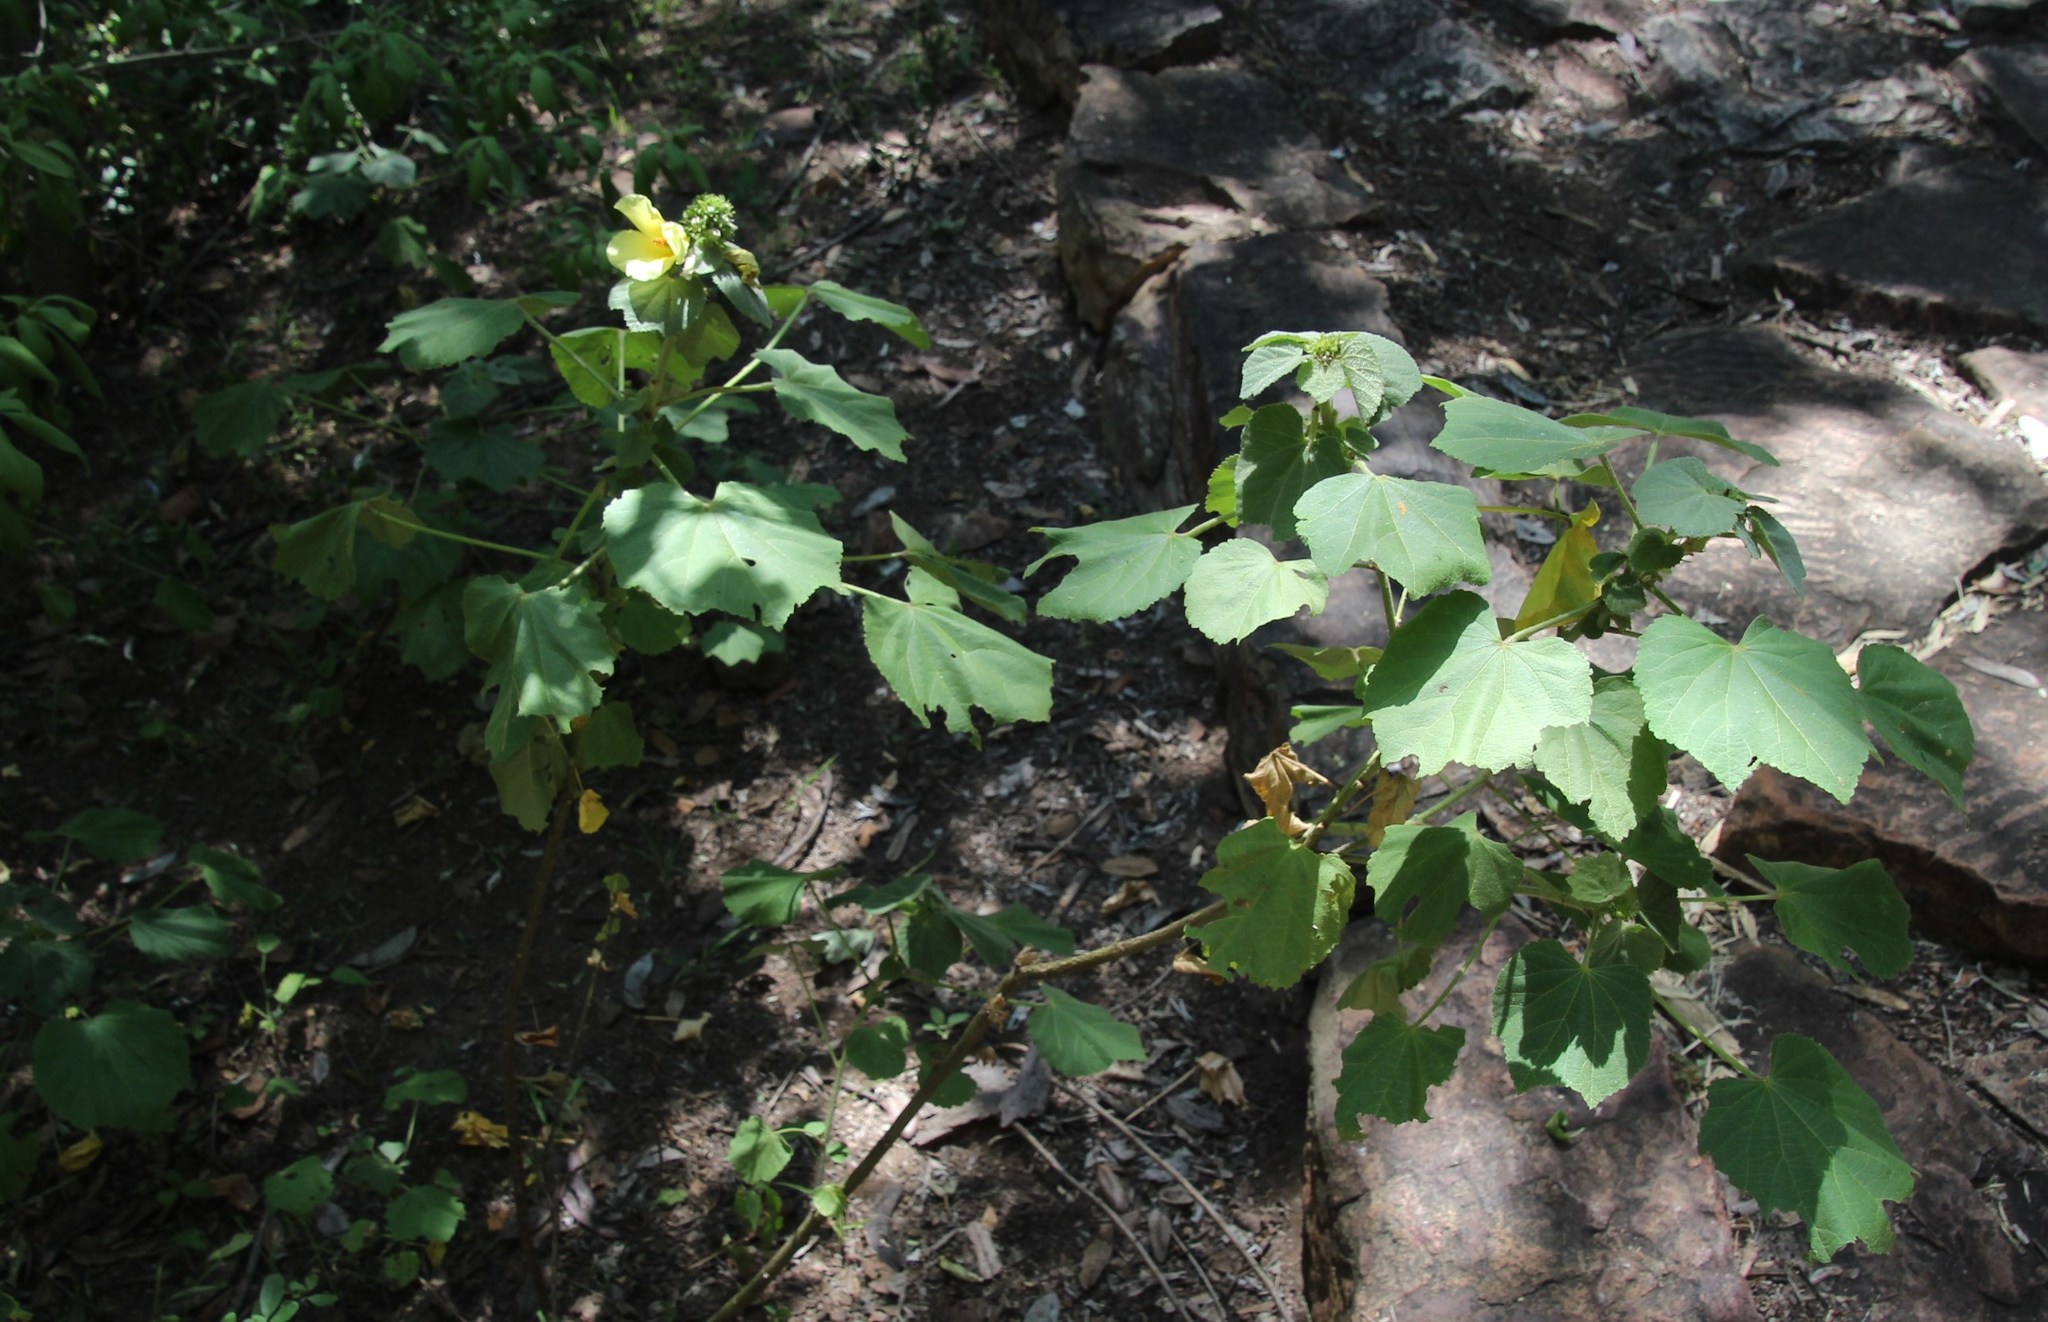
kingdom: Plantae
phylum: Tracheophyta
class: Magnoliopsida
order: Malvales
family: Malvaceae
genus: Hibiscus
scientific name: Hibiscus lunariifolius
